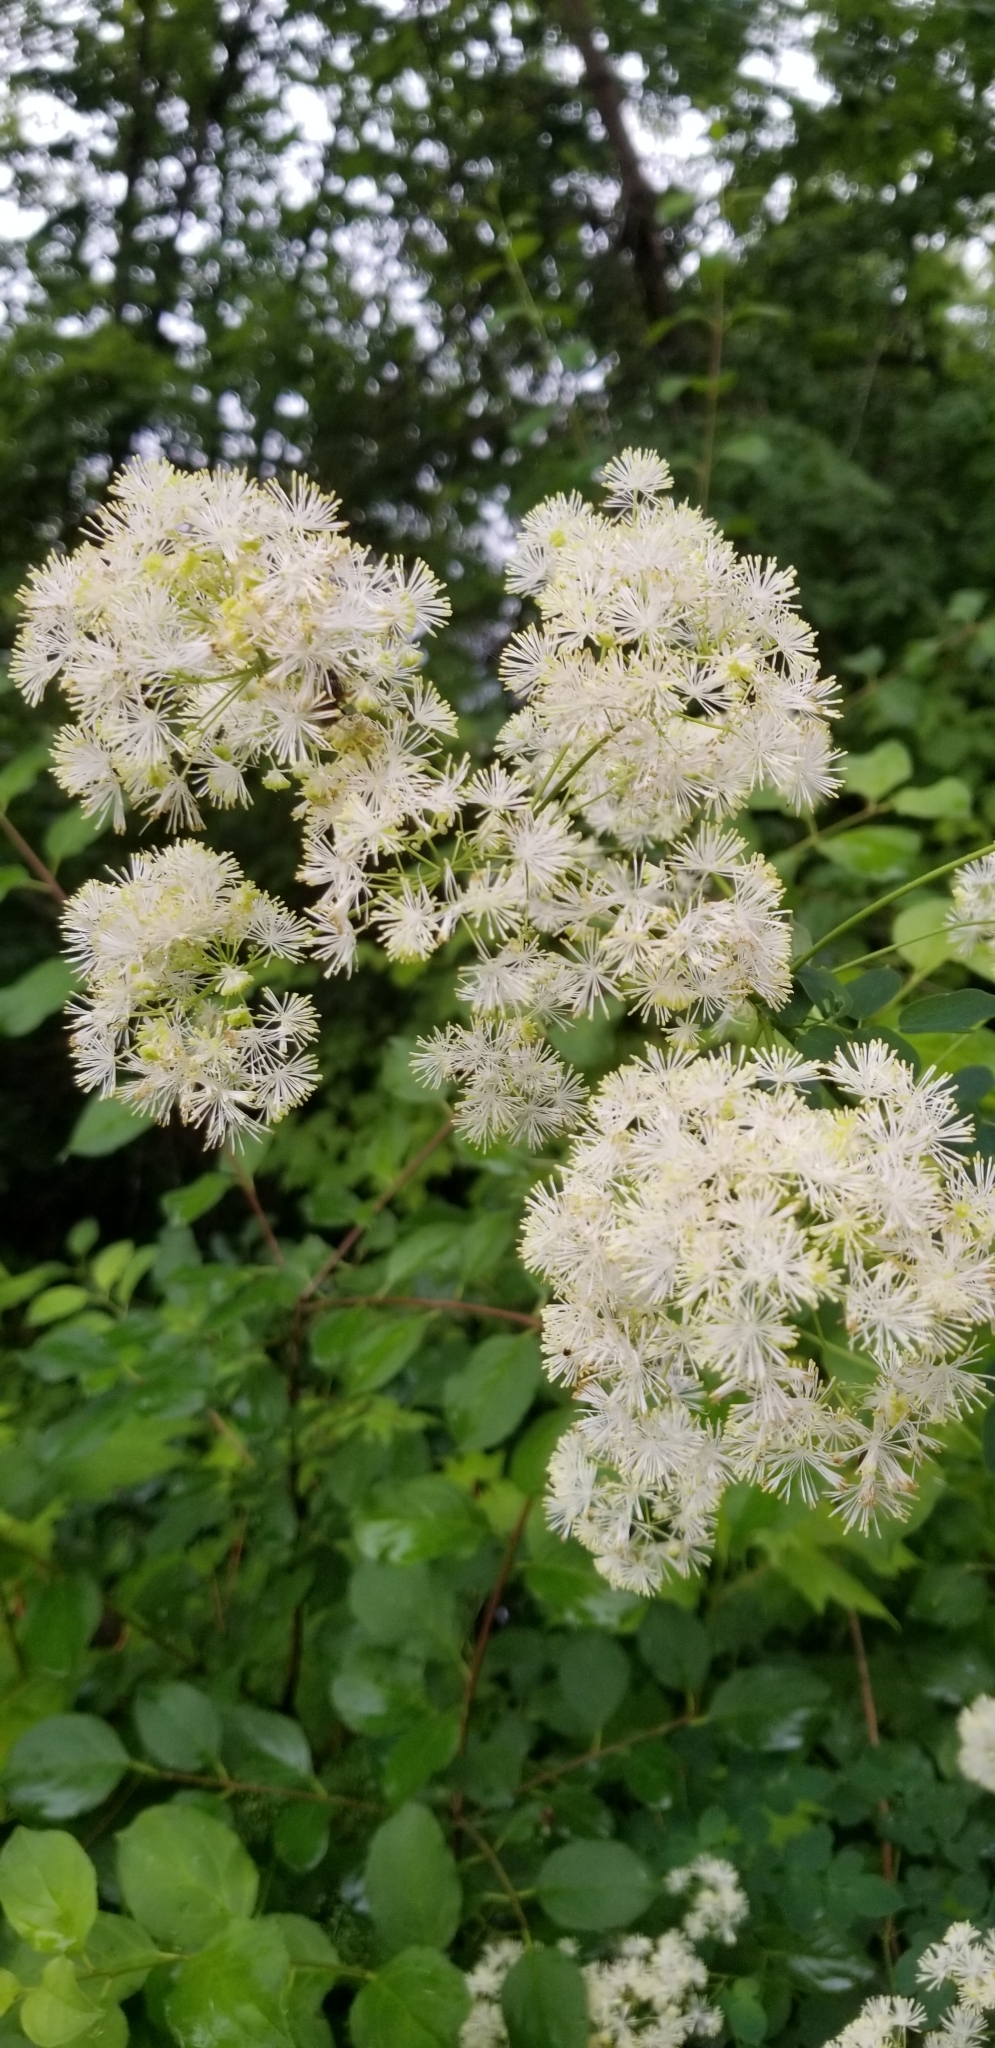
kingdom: Plantae
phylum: Tracheophyta
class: Magnoliopsida
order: Ranunculales
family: Ranunculaceae
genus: Thalictrum
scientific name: Thalictrum pubescens
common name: King-of-the-meadow
